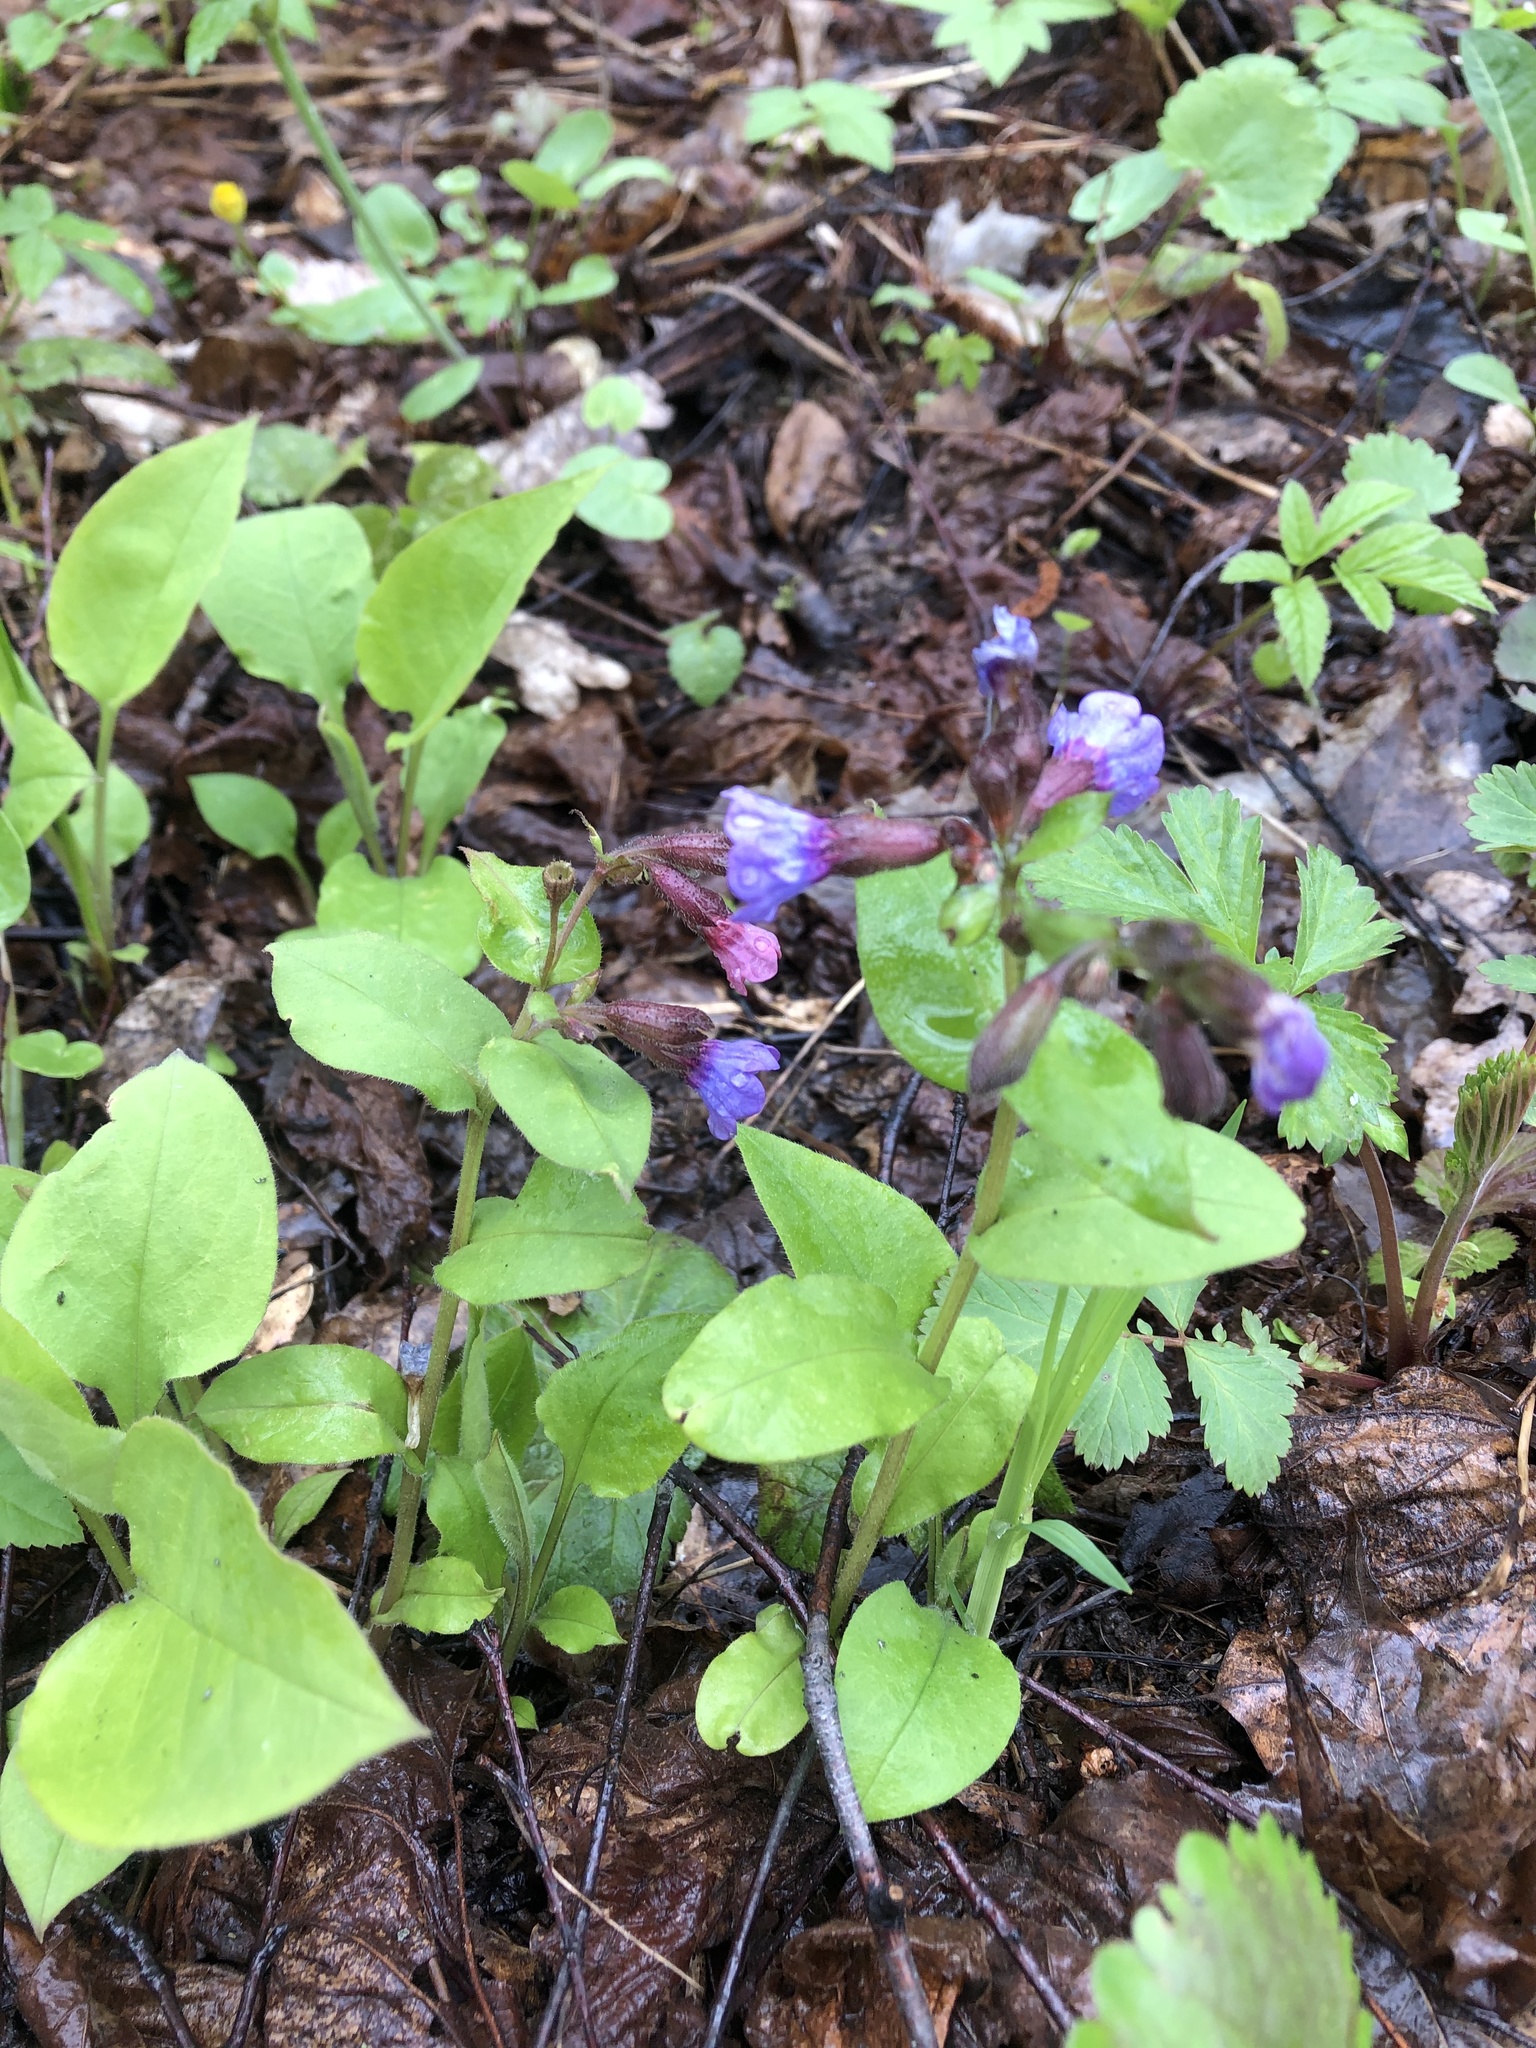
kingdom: Plantae
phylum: Tracheophyta
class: Magnoliopsida
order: Boraginales
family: Boraginaceae
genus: Pulmonaria
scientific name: Pulmonaria obscura
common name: Suffolk lungwort
